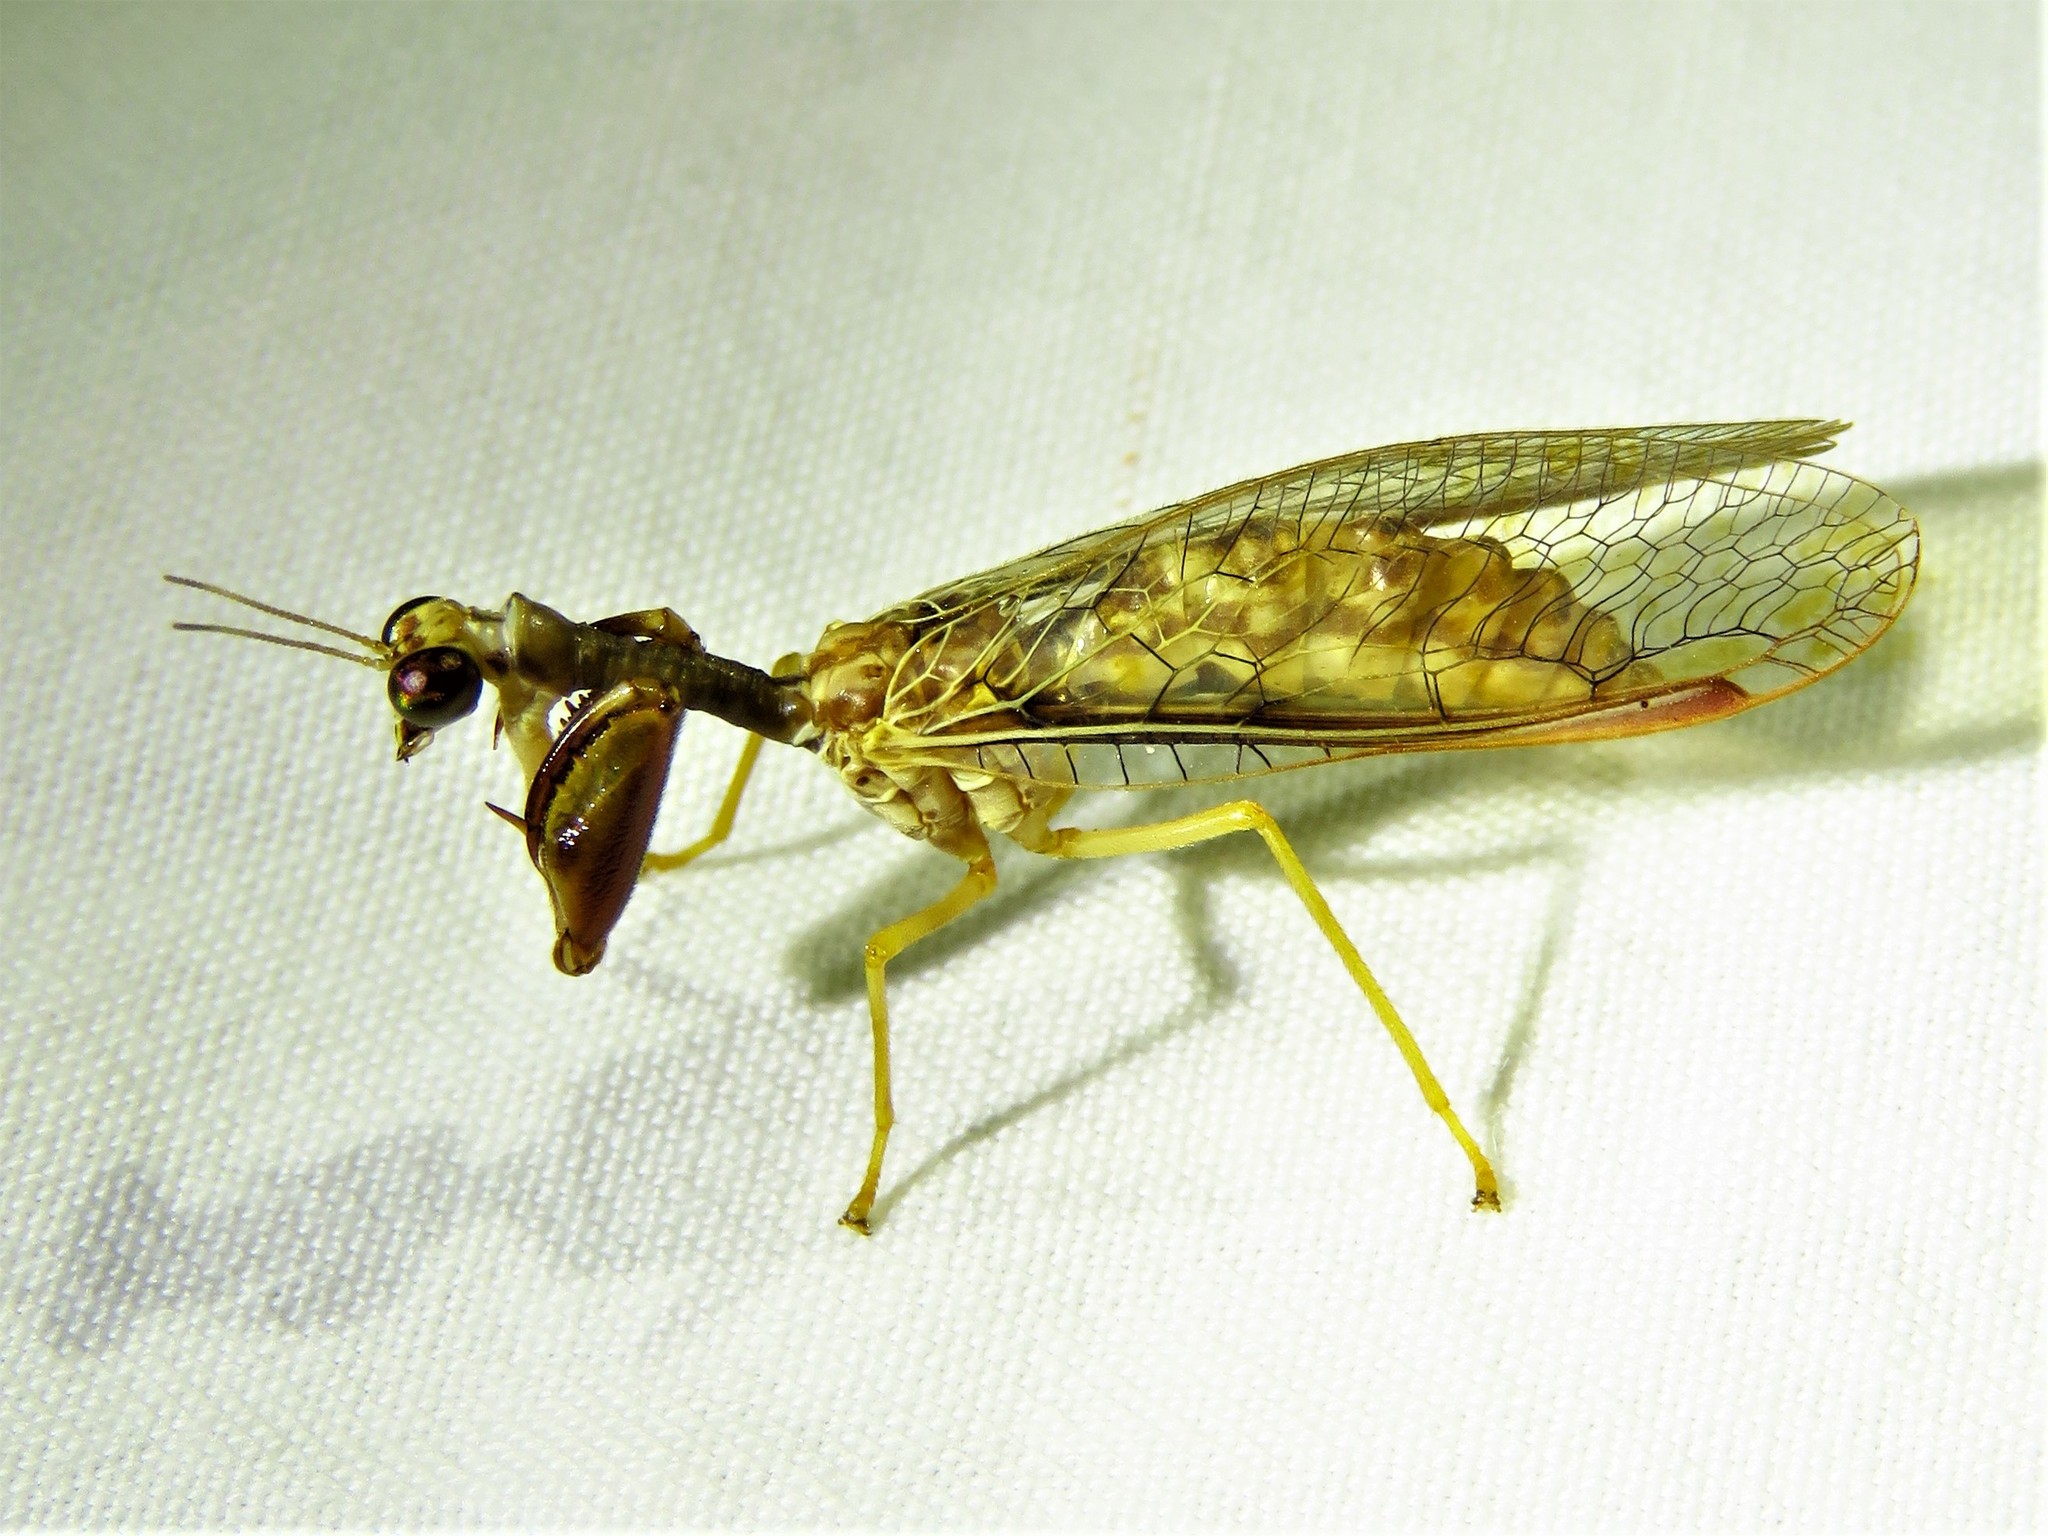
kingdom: Animalia
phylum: Arthropoda
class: Insecta
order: Neuroptera
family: Mantispidae
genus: Dicromantispa
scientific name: Dicromantispa sayi
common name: Say's mantidfly
